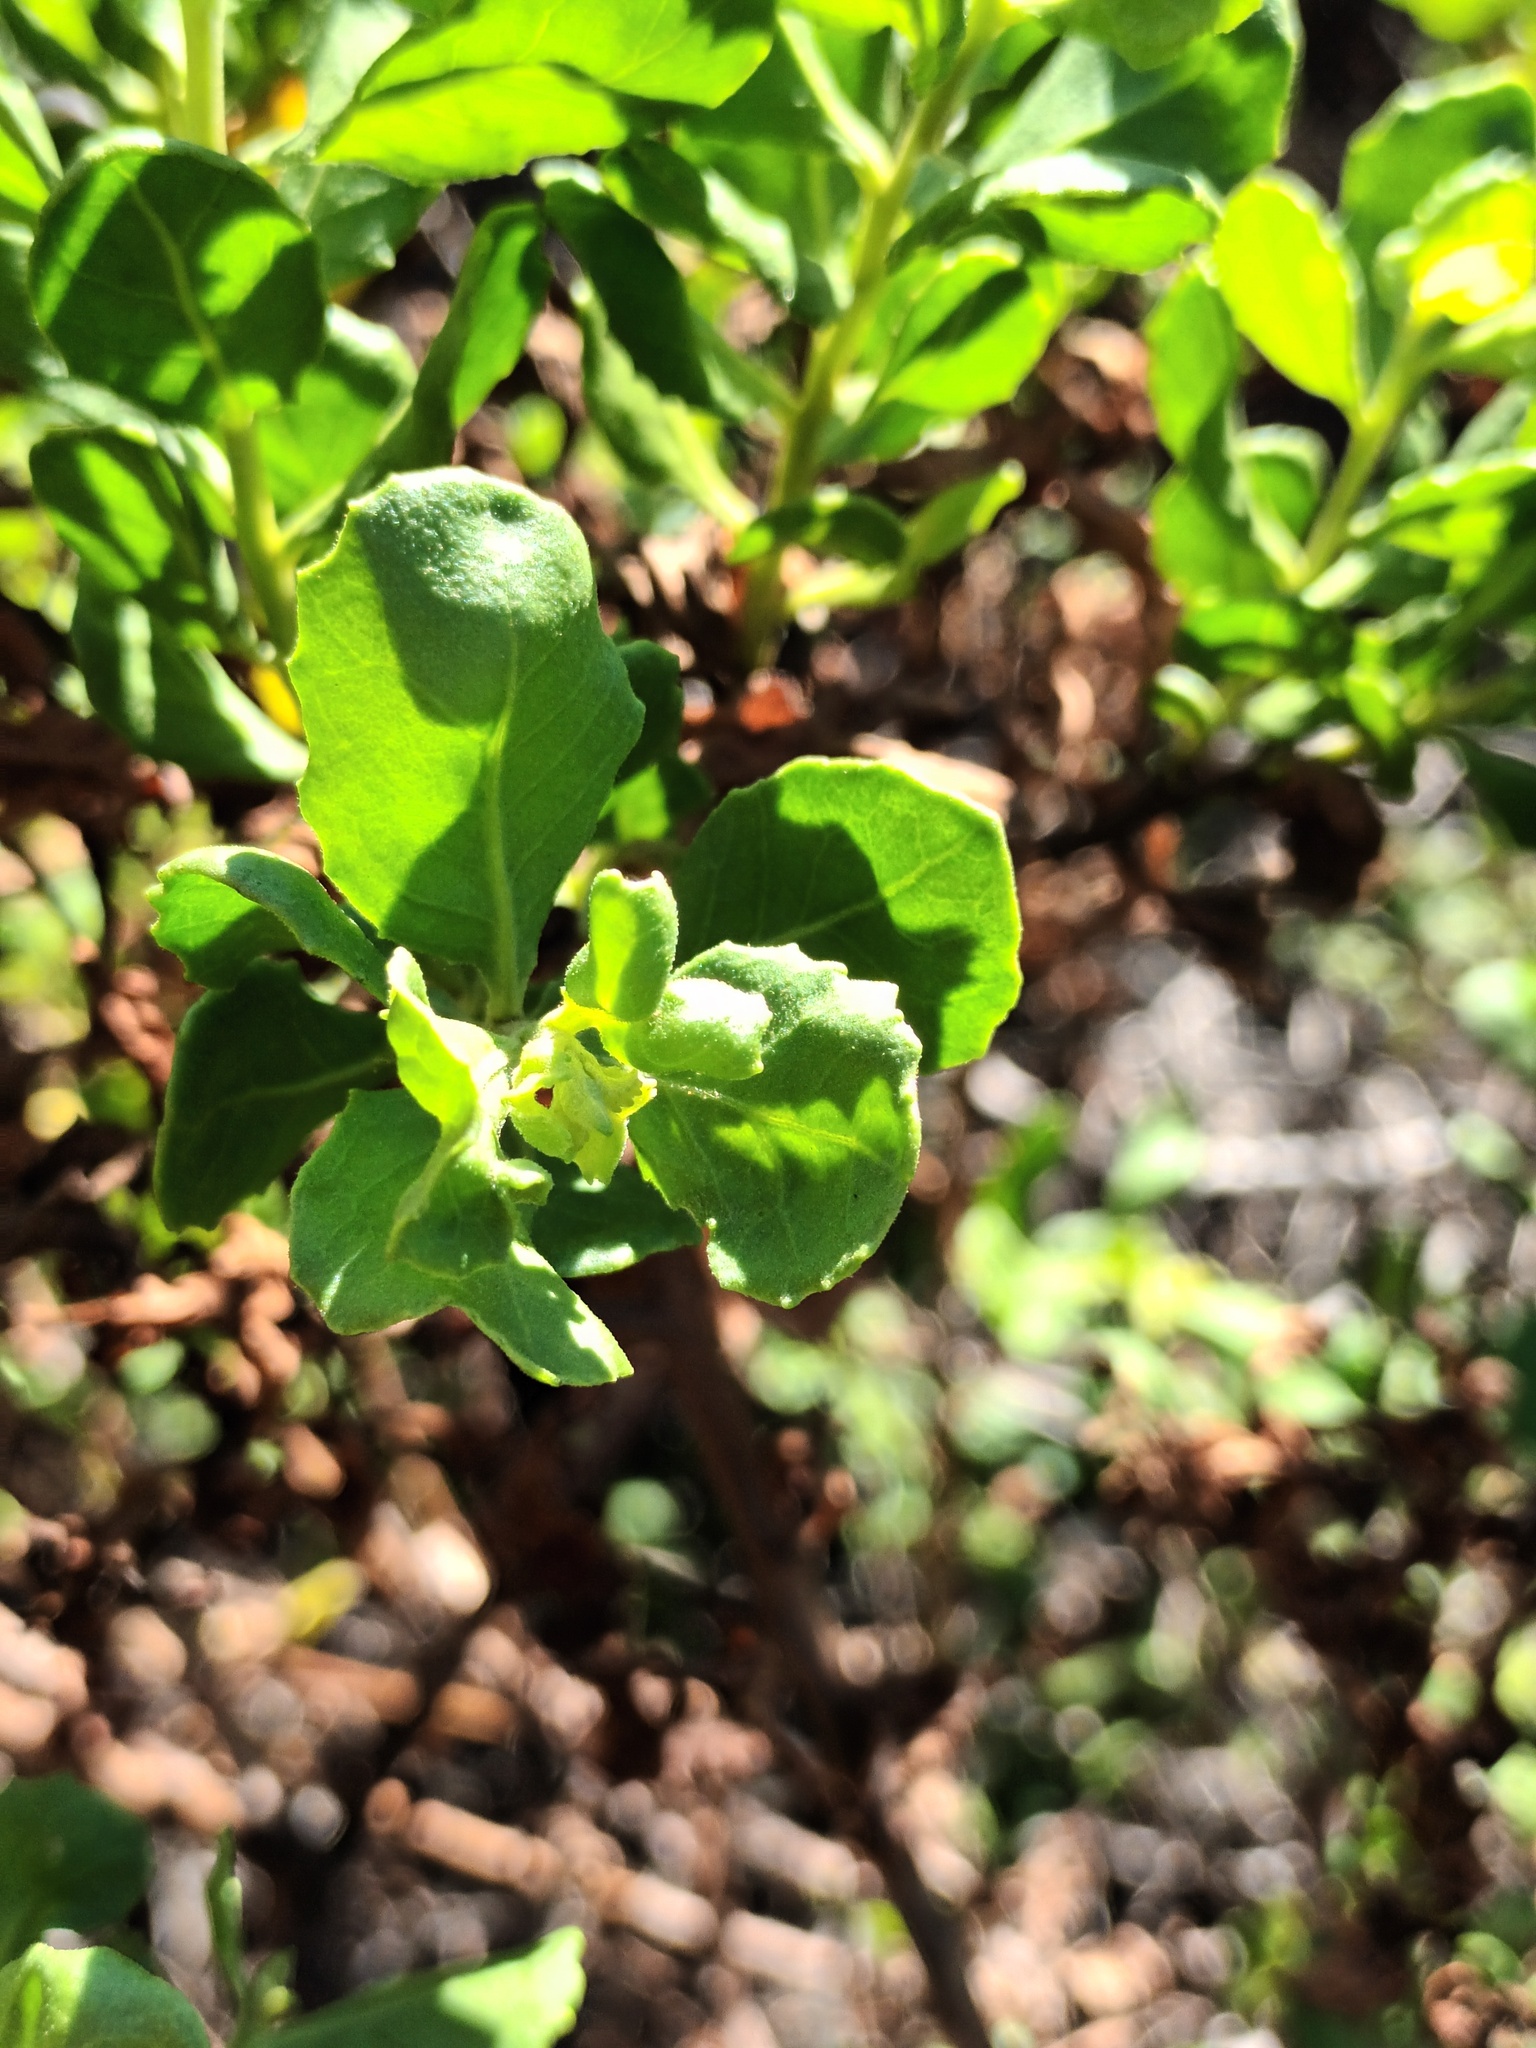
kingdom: Plantae
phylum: Tracheophyta
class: Magnoliopsida
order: Asterales
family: Asteraceae
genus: Pluchea
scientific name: Pluchea indica
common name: Indian fleabane
